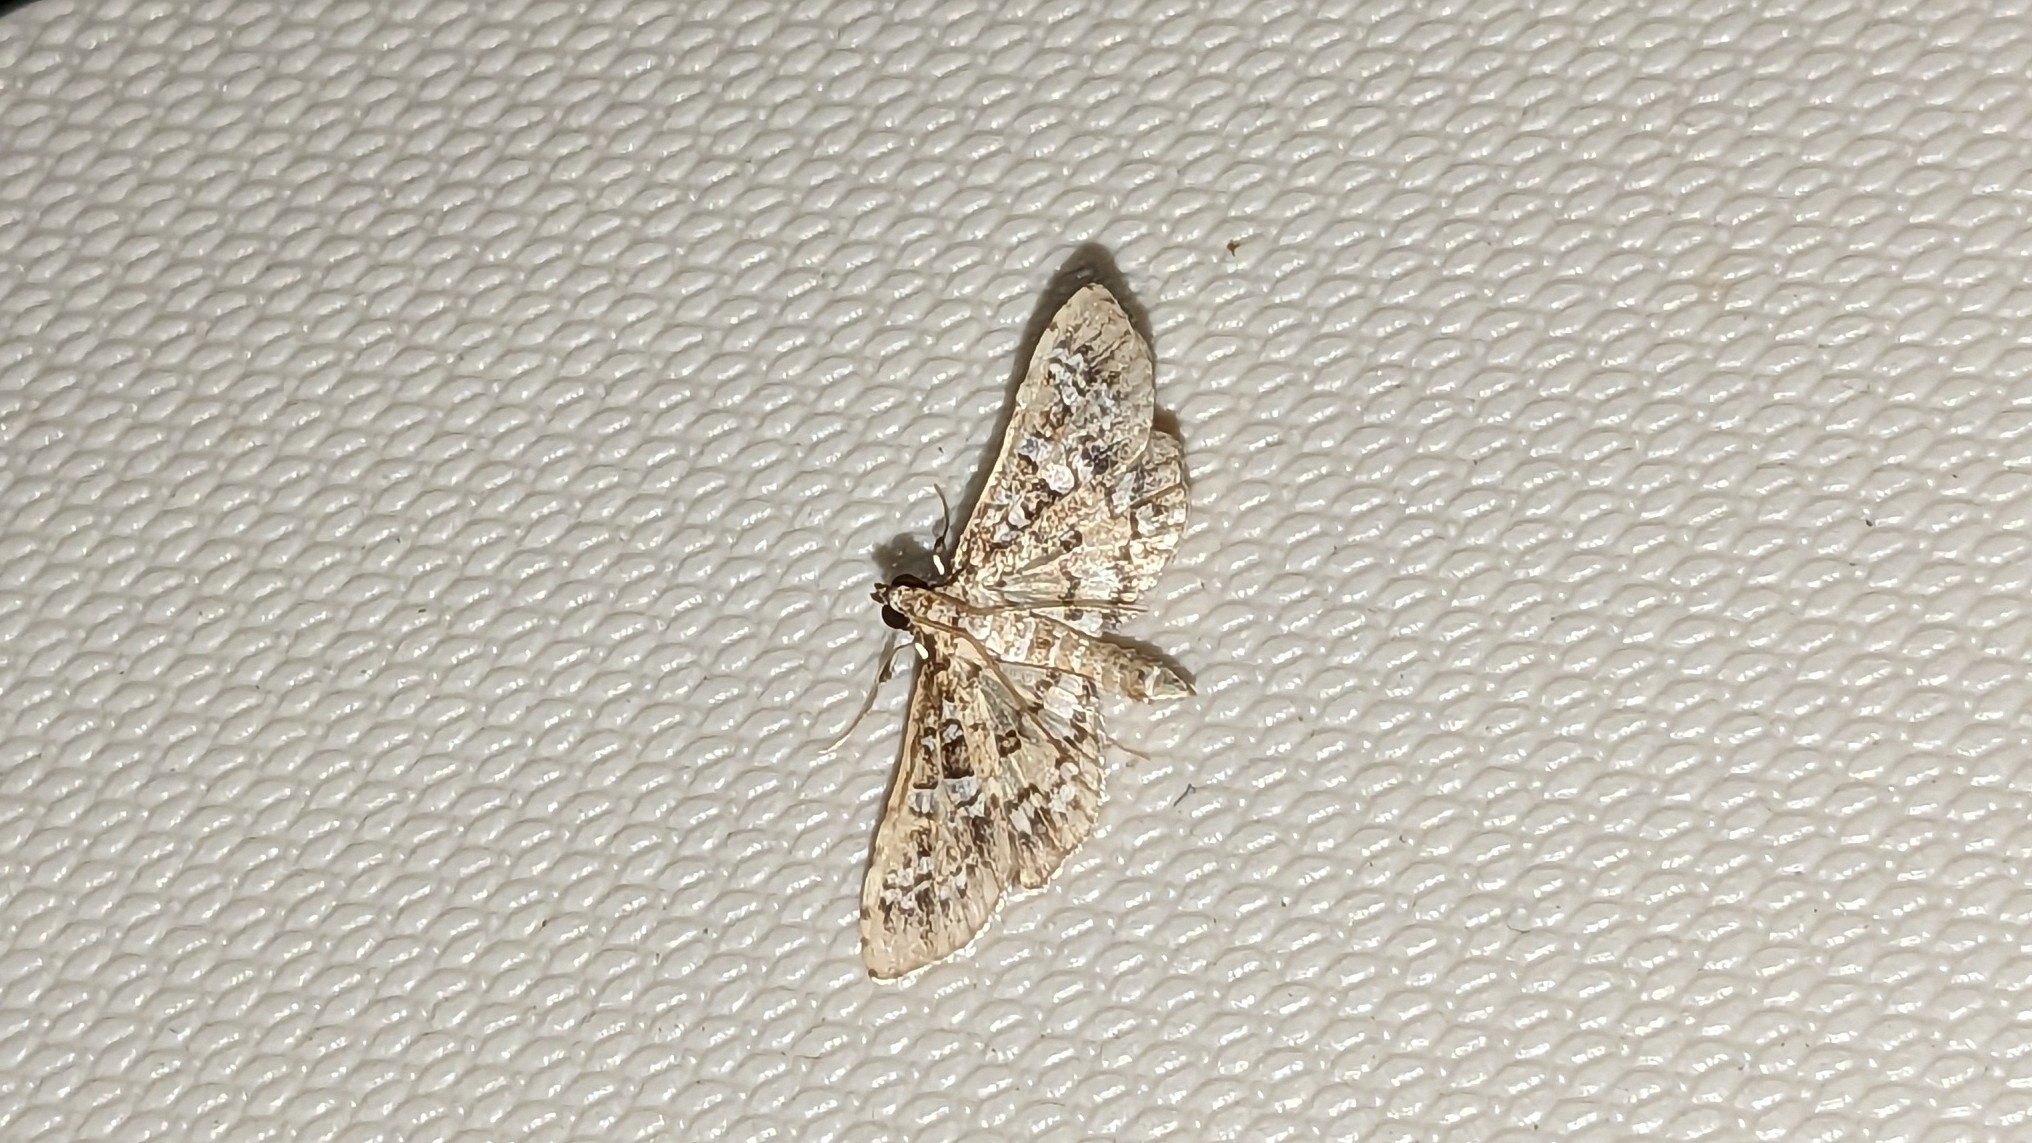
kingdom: Animalia
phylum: Arthropoda
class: Insecta
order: Lepidoptera
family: Crambidae
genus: Samea
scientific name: Samea multiplicalis
